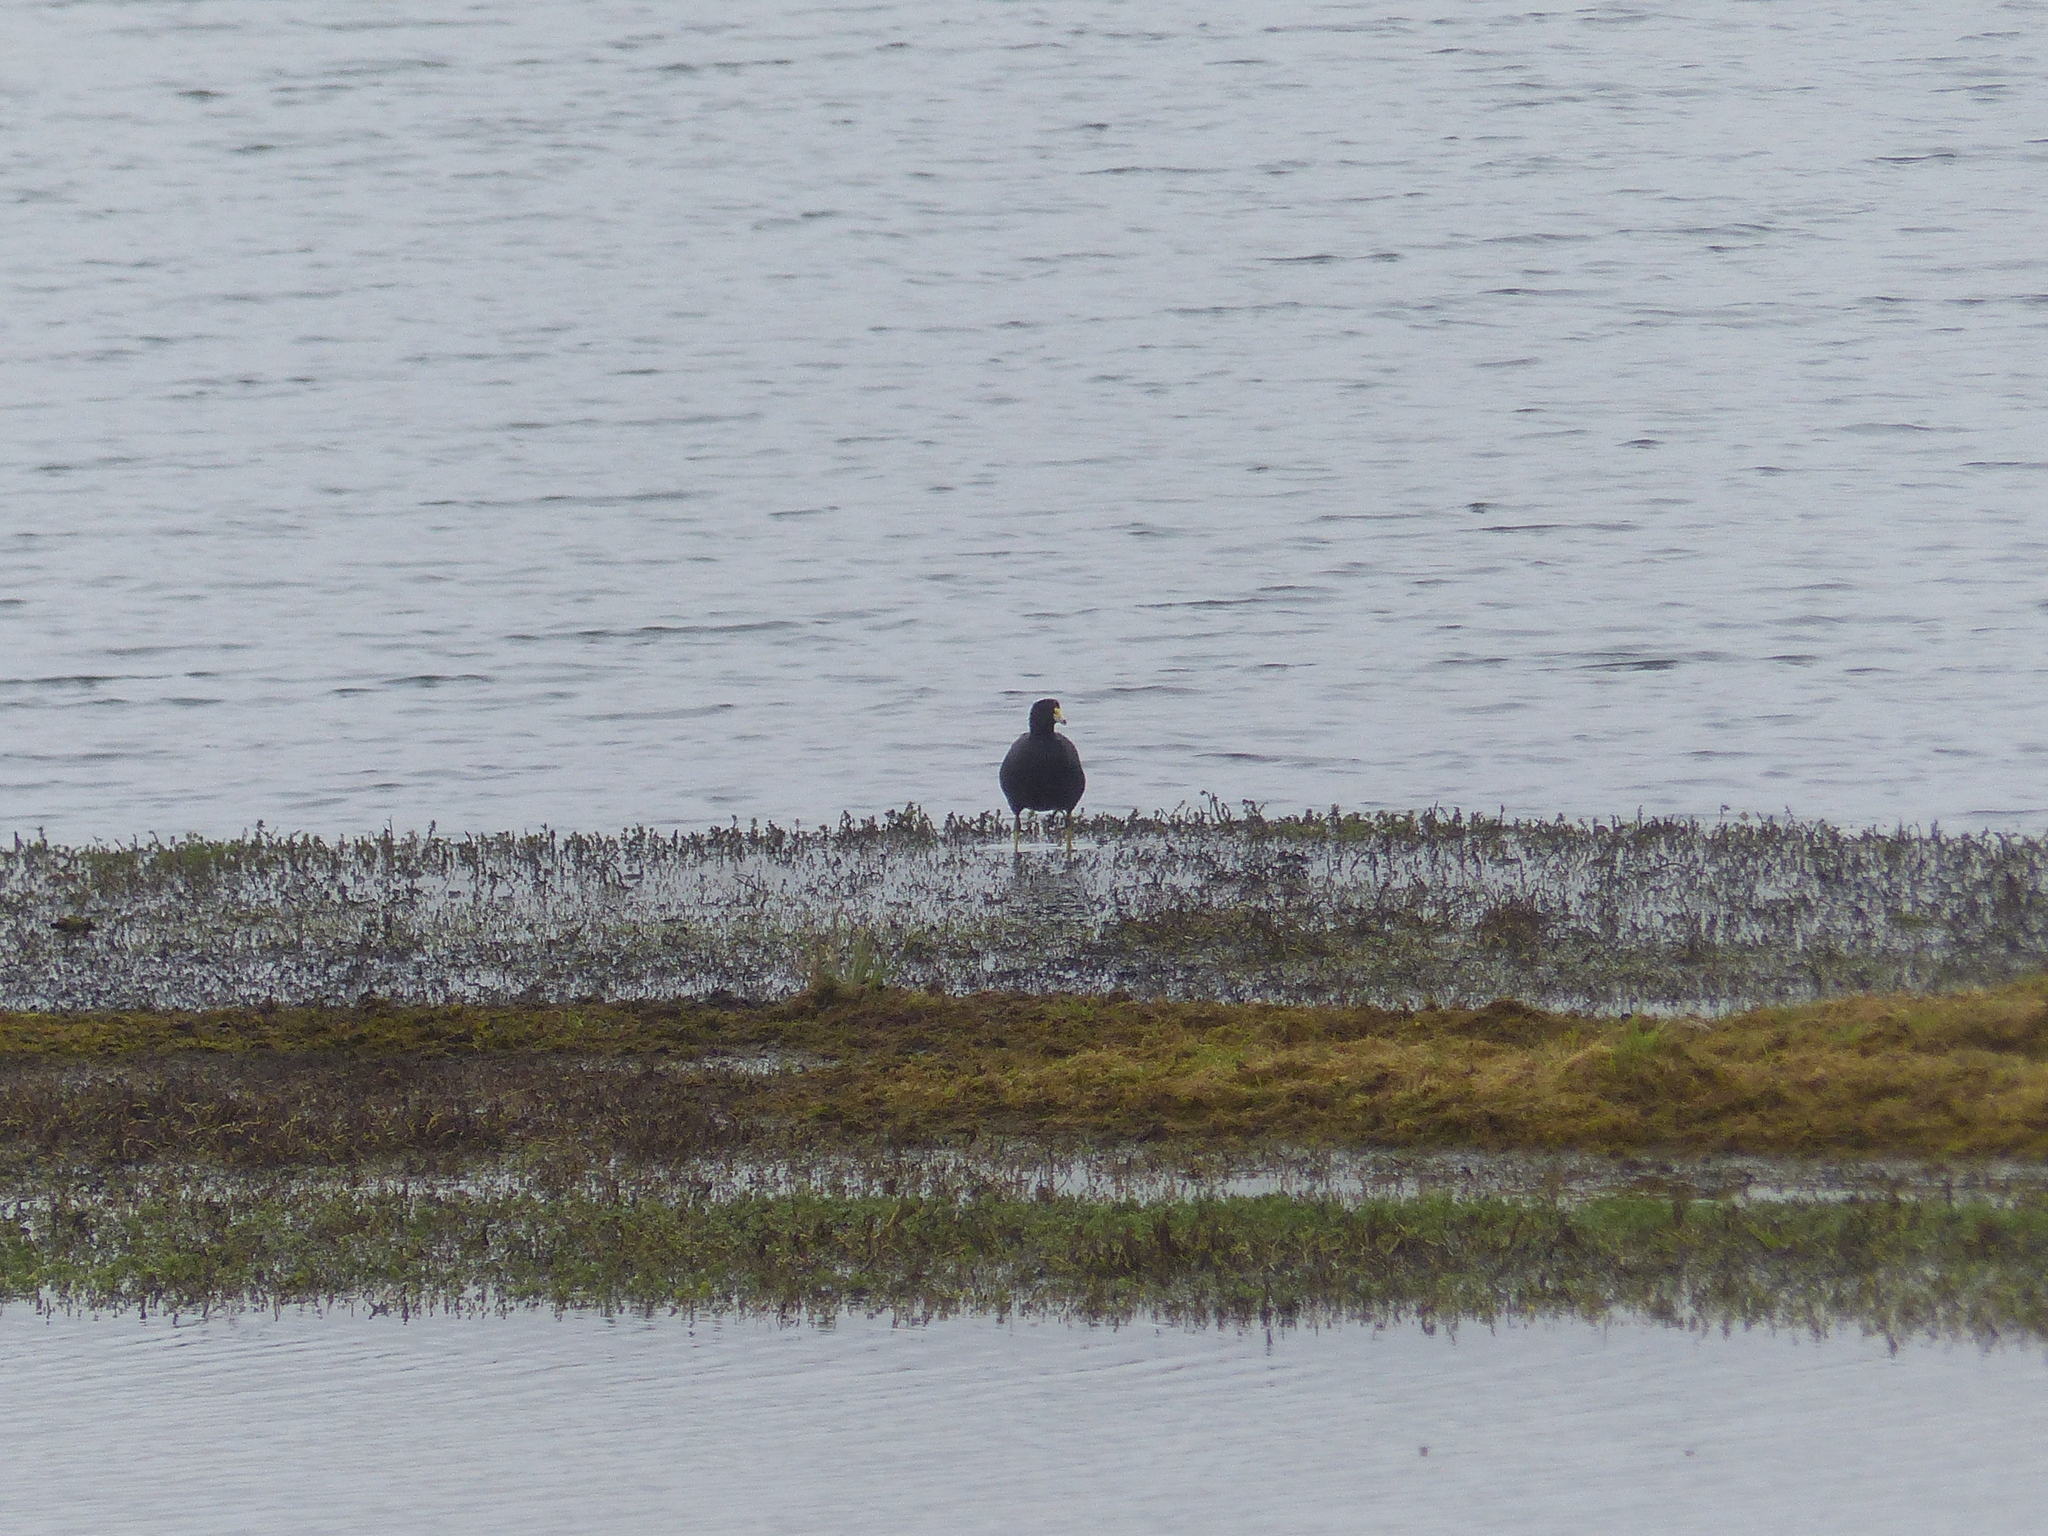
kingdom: Animalia
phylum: Chordata
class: Aves
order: Gruiformes
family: Rallidae
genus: Fulica
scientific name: Fulica americana
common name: American coot
